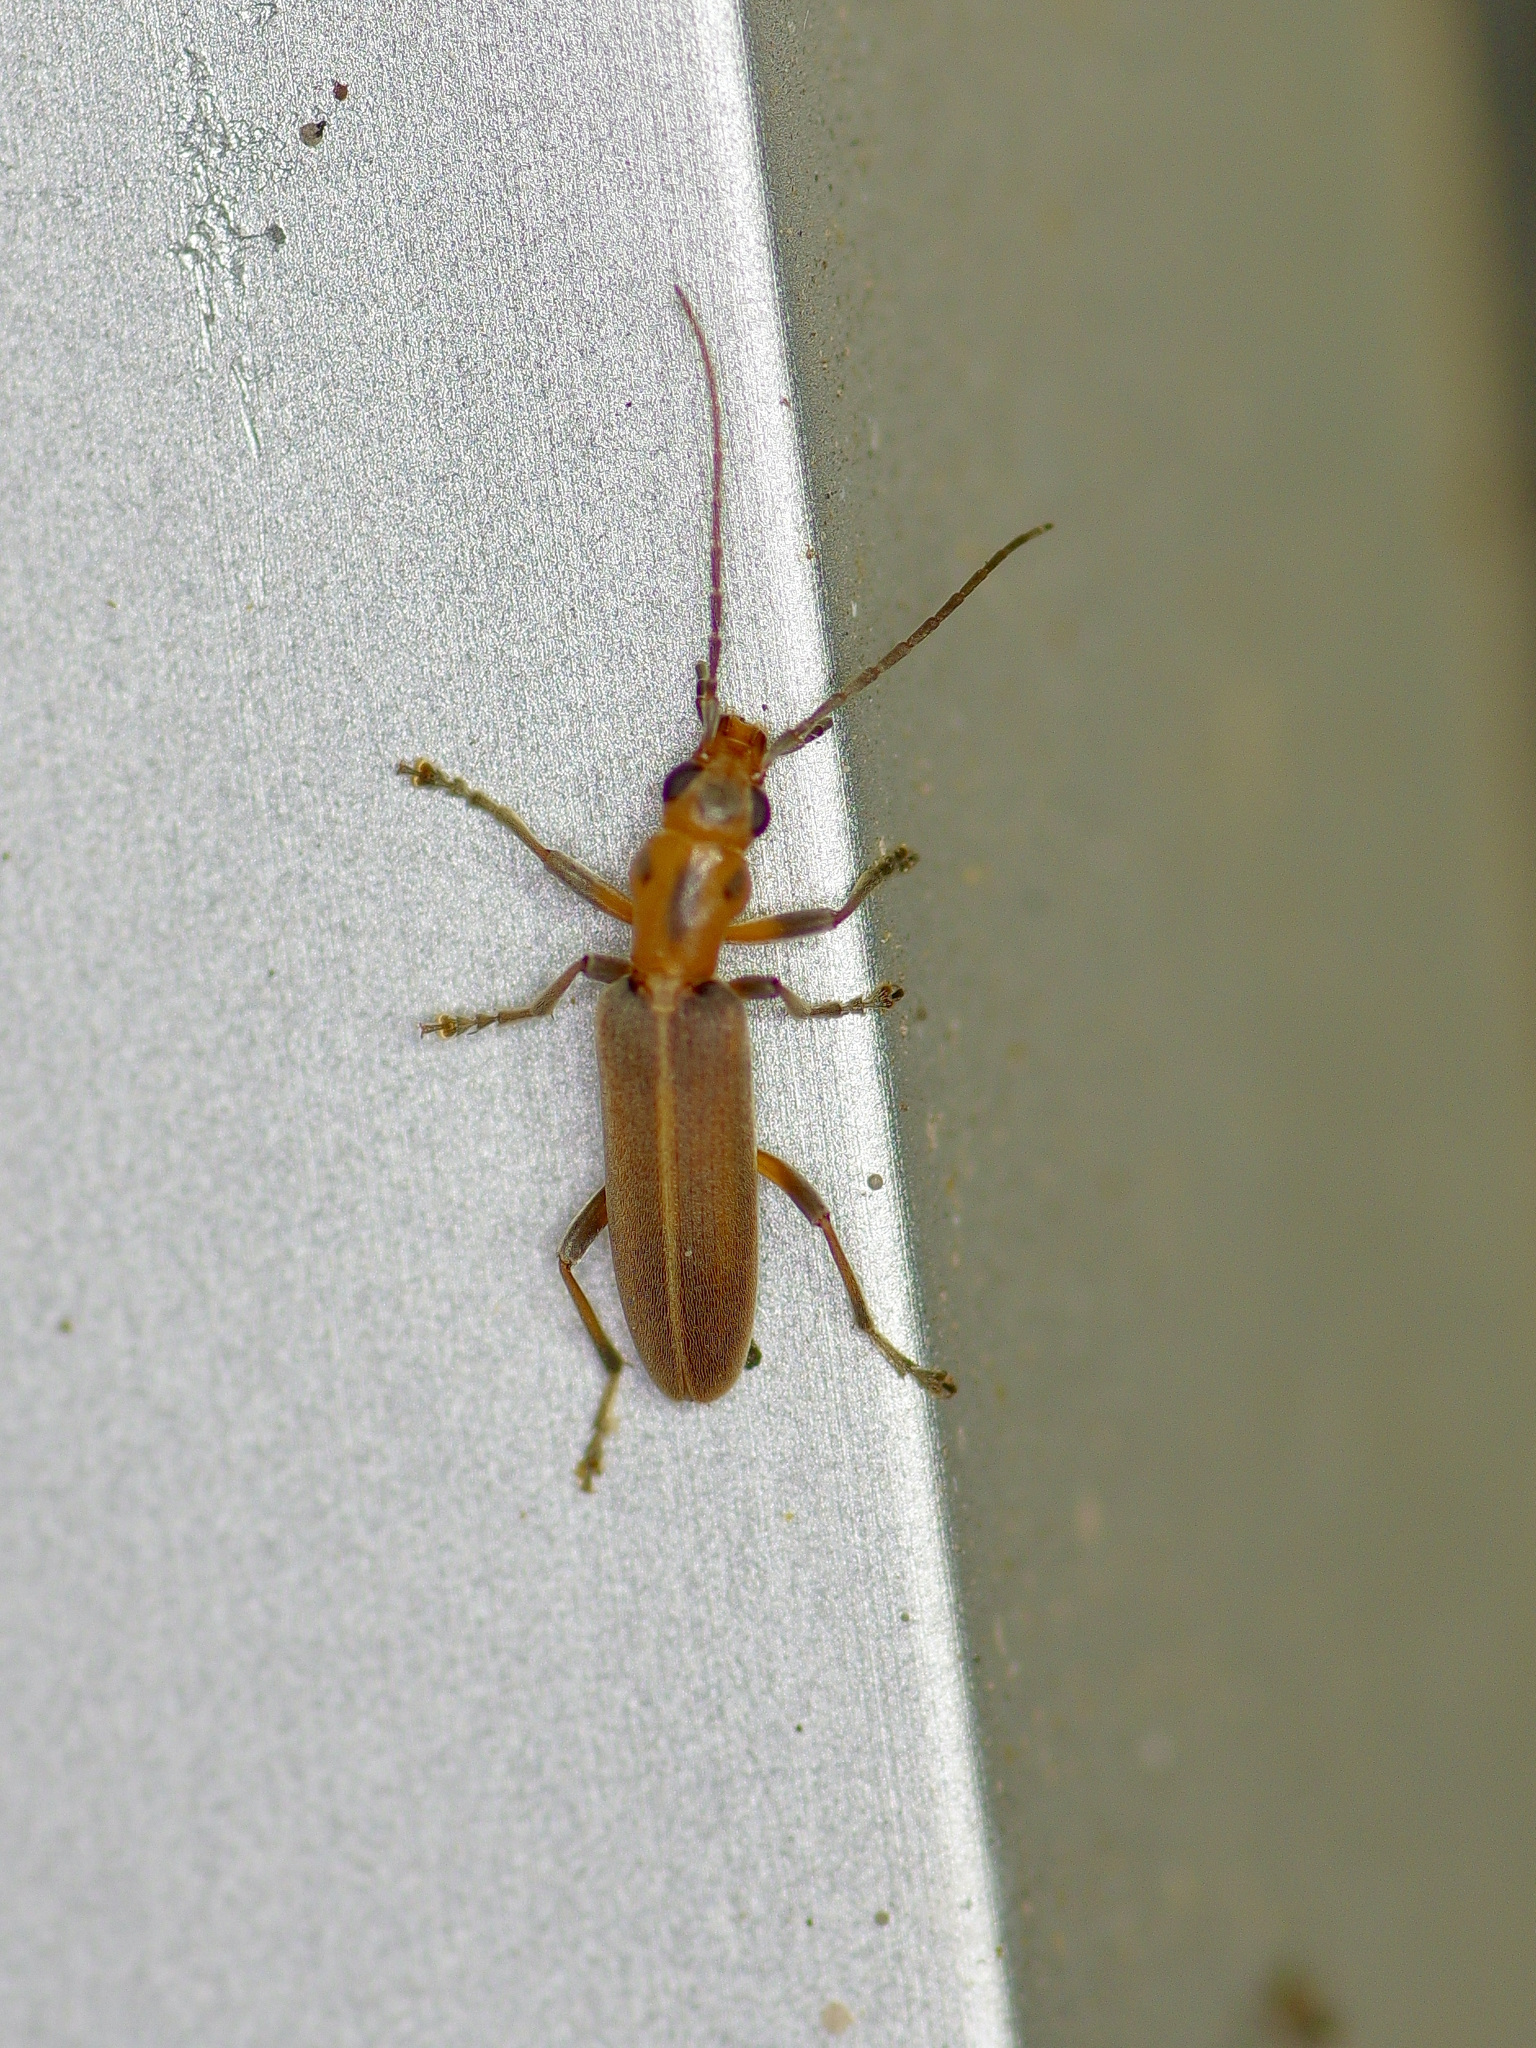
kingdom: Animalia
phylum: Arthropoda
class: Insecta
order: Coleoptera
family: Oedemeridae
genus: Oxacis
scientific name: Oxacis trimaculata
